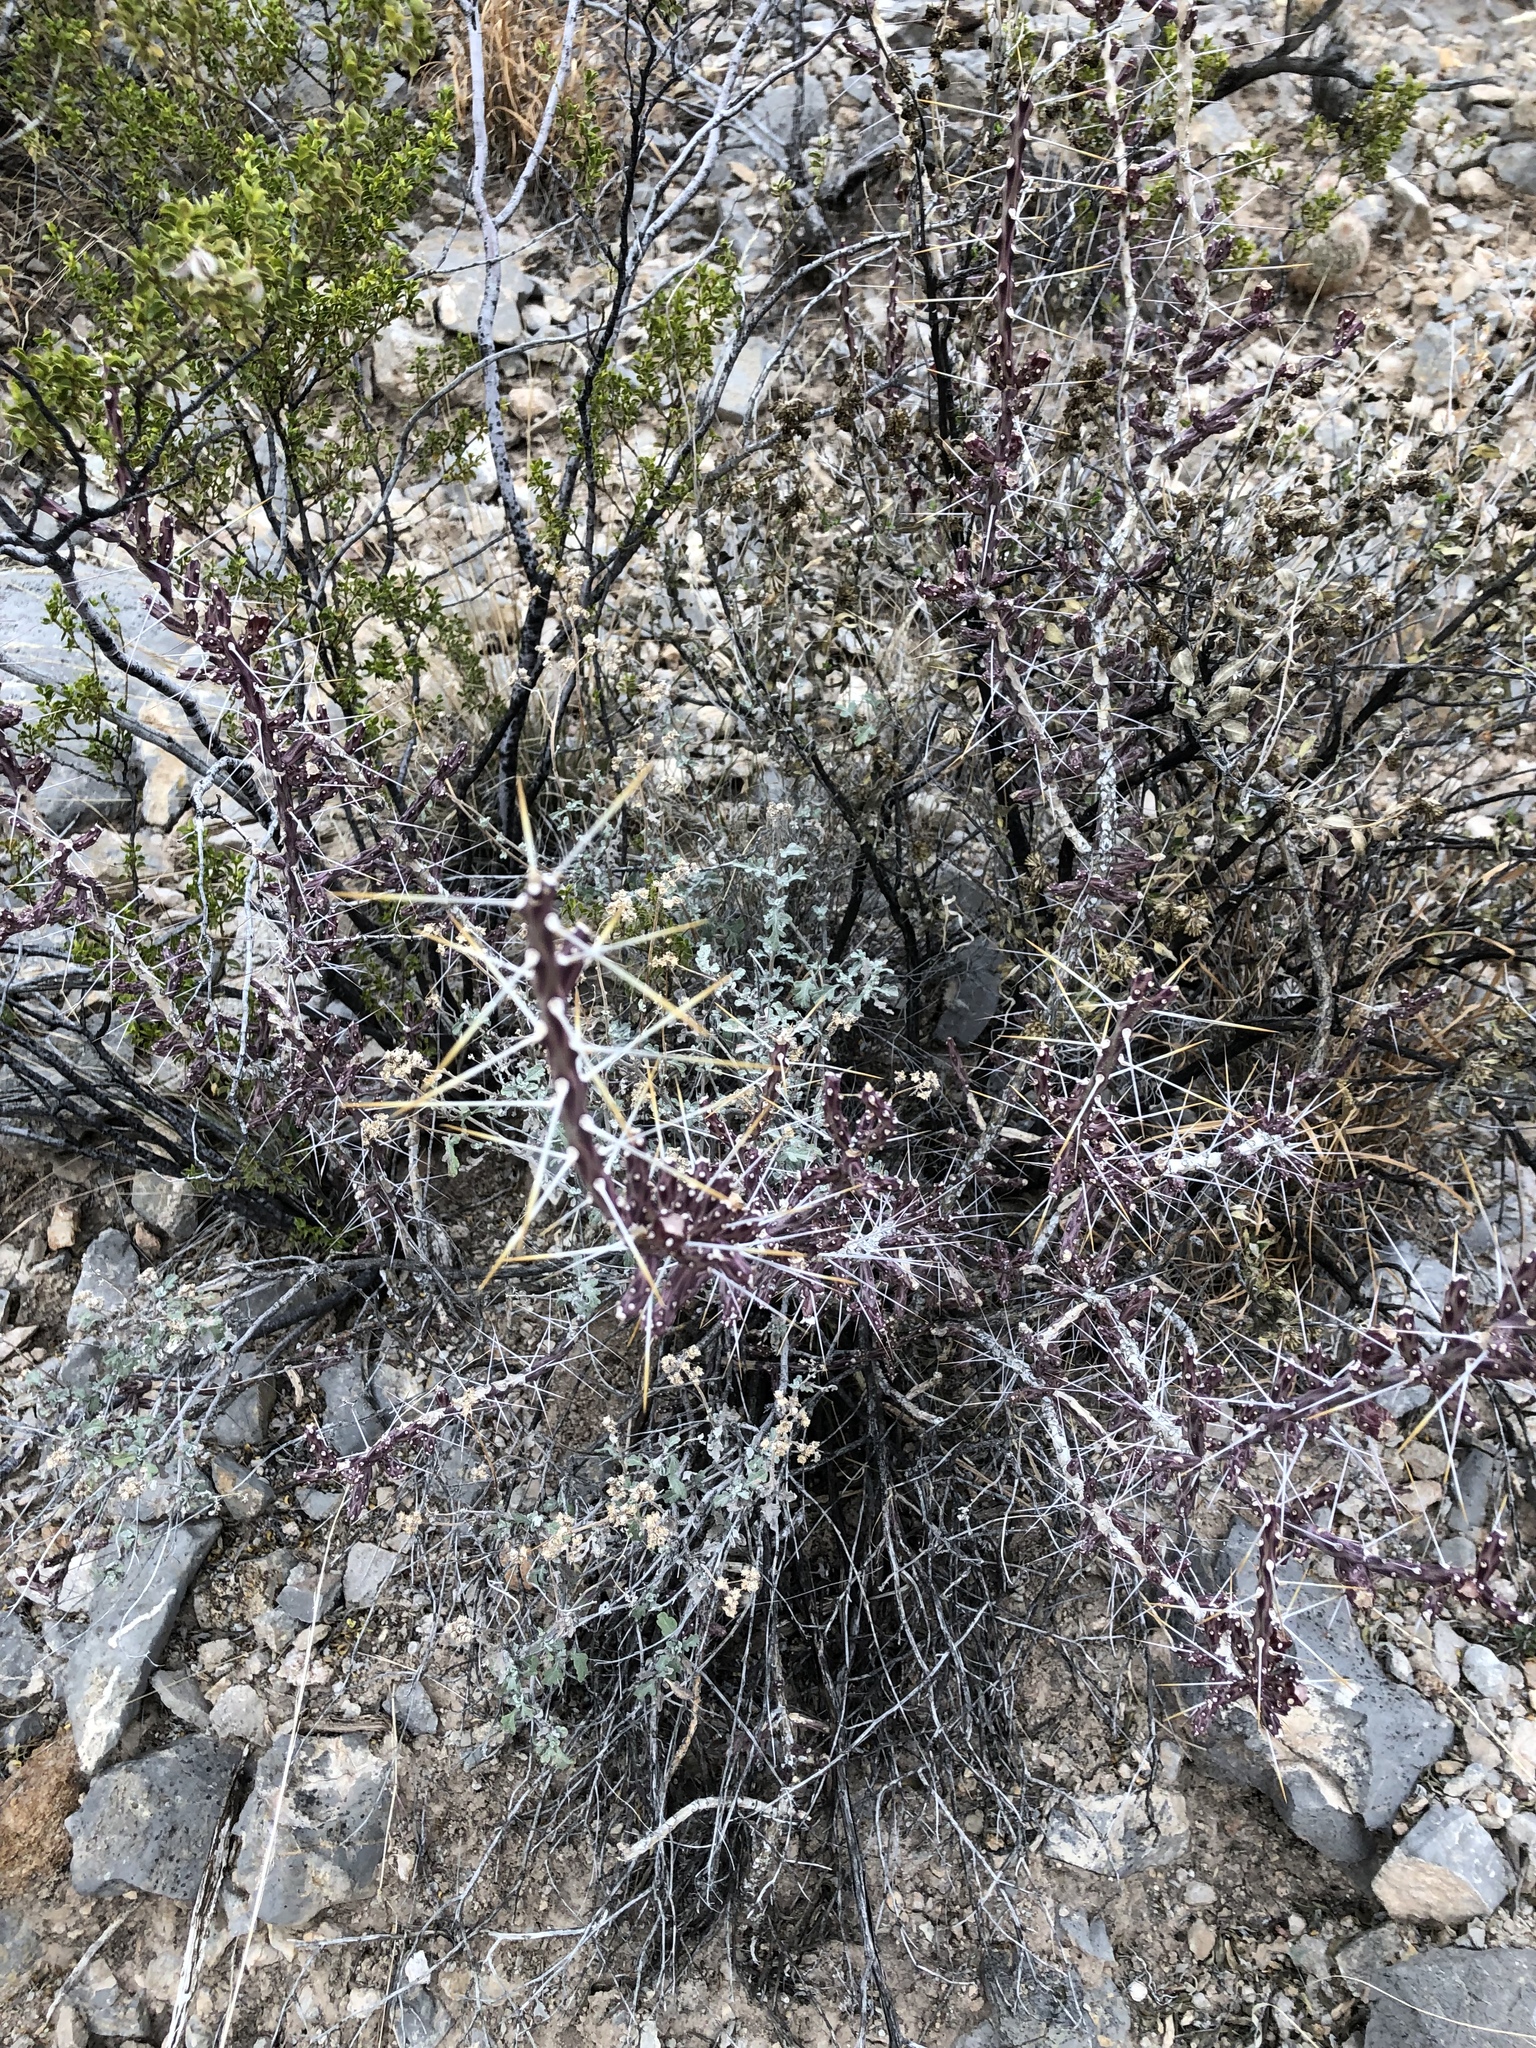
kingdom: Plantae
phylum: Tracheophyta
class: Magnoliopsida
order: Caryophyllales
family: Cactaceae
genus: Cylindropuntia
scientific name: Cylindropuntia leptocaulis
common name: Christmas cactus
